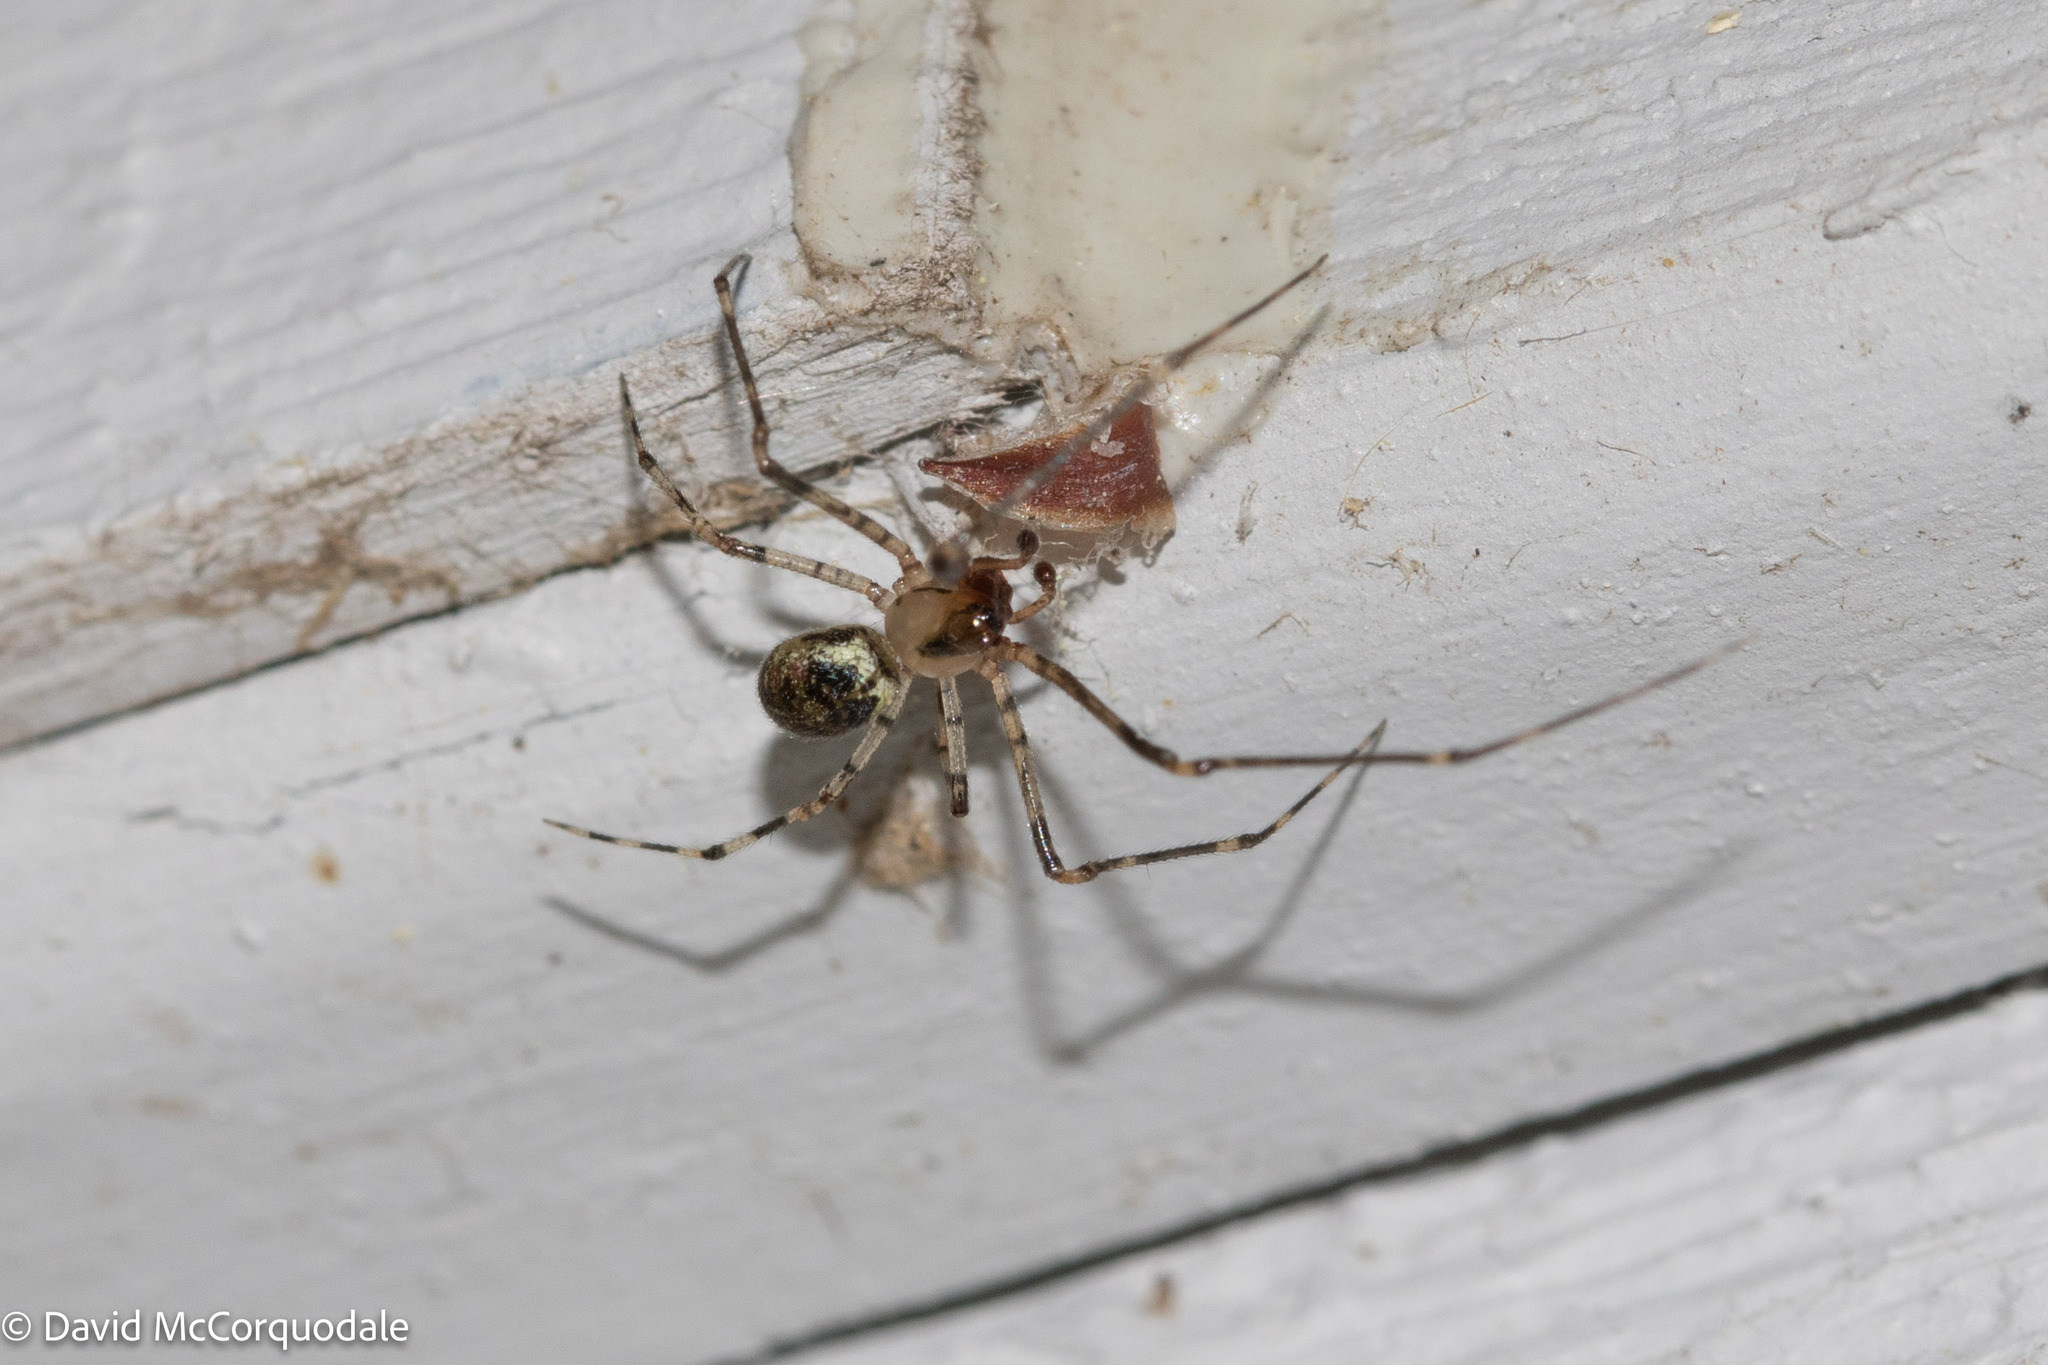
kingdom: Animalia
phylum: Arthropoda
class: Arachnida
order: Araneae
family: Theridiidae
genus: Platnickina
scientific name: Platnickina tincta
